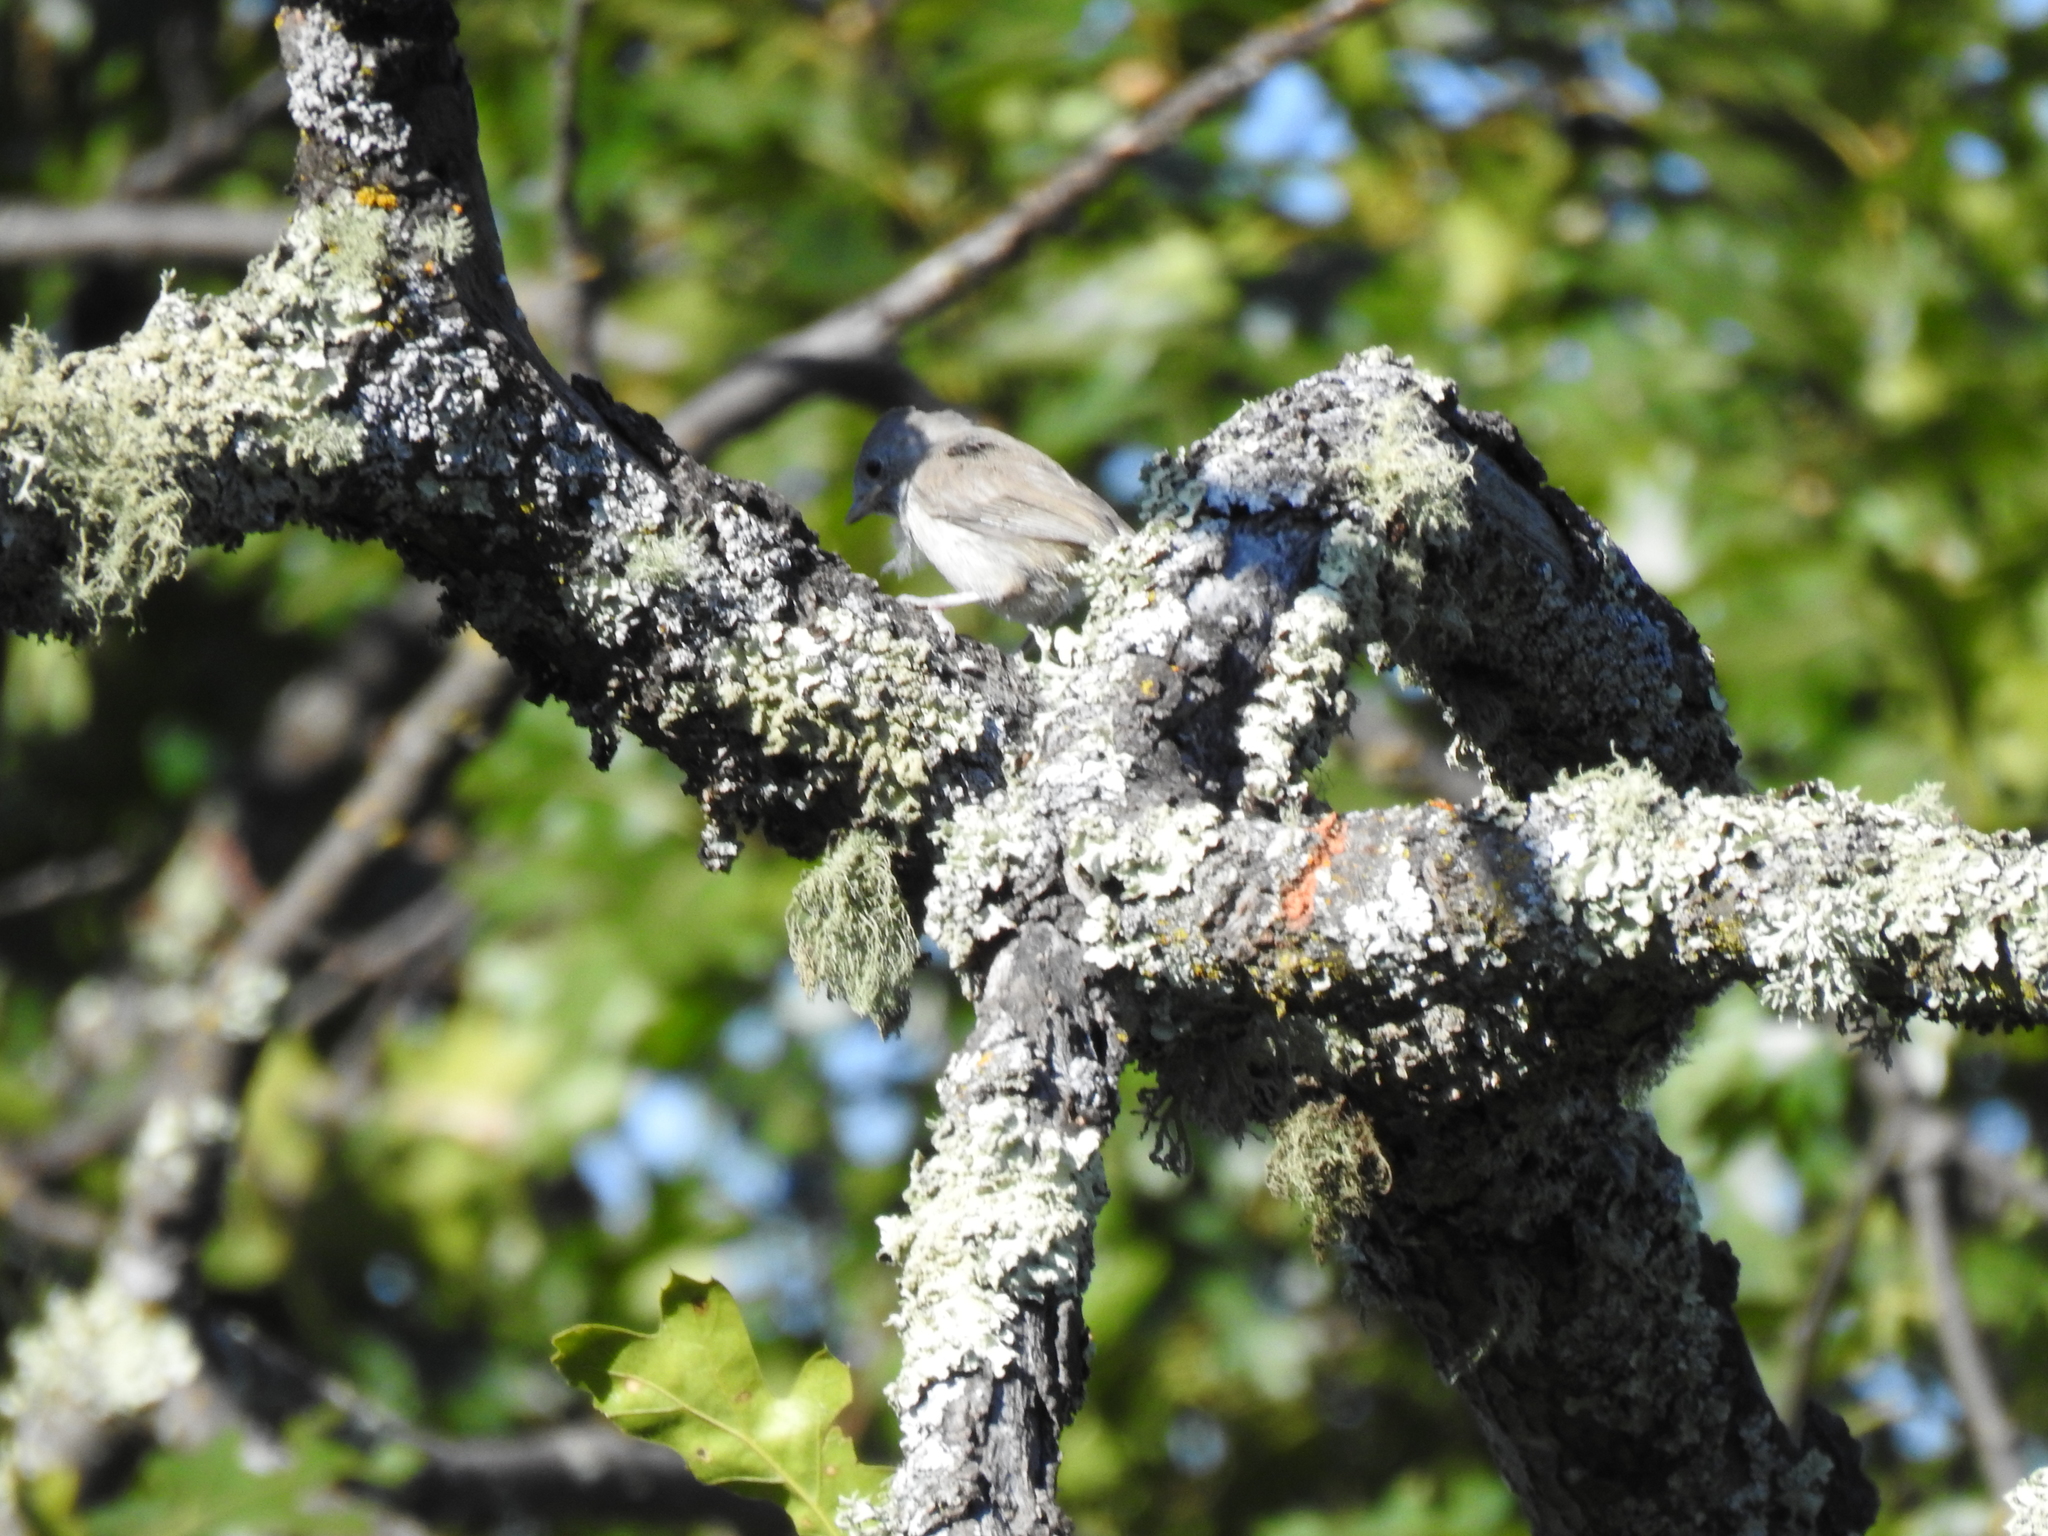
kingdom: Animalia
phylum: Chordata
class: Aves
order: Passeriformes
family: Paridae
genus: Baeolophus
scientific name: Baeolophus inornatus
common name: Oak titmouse
